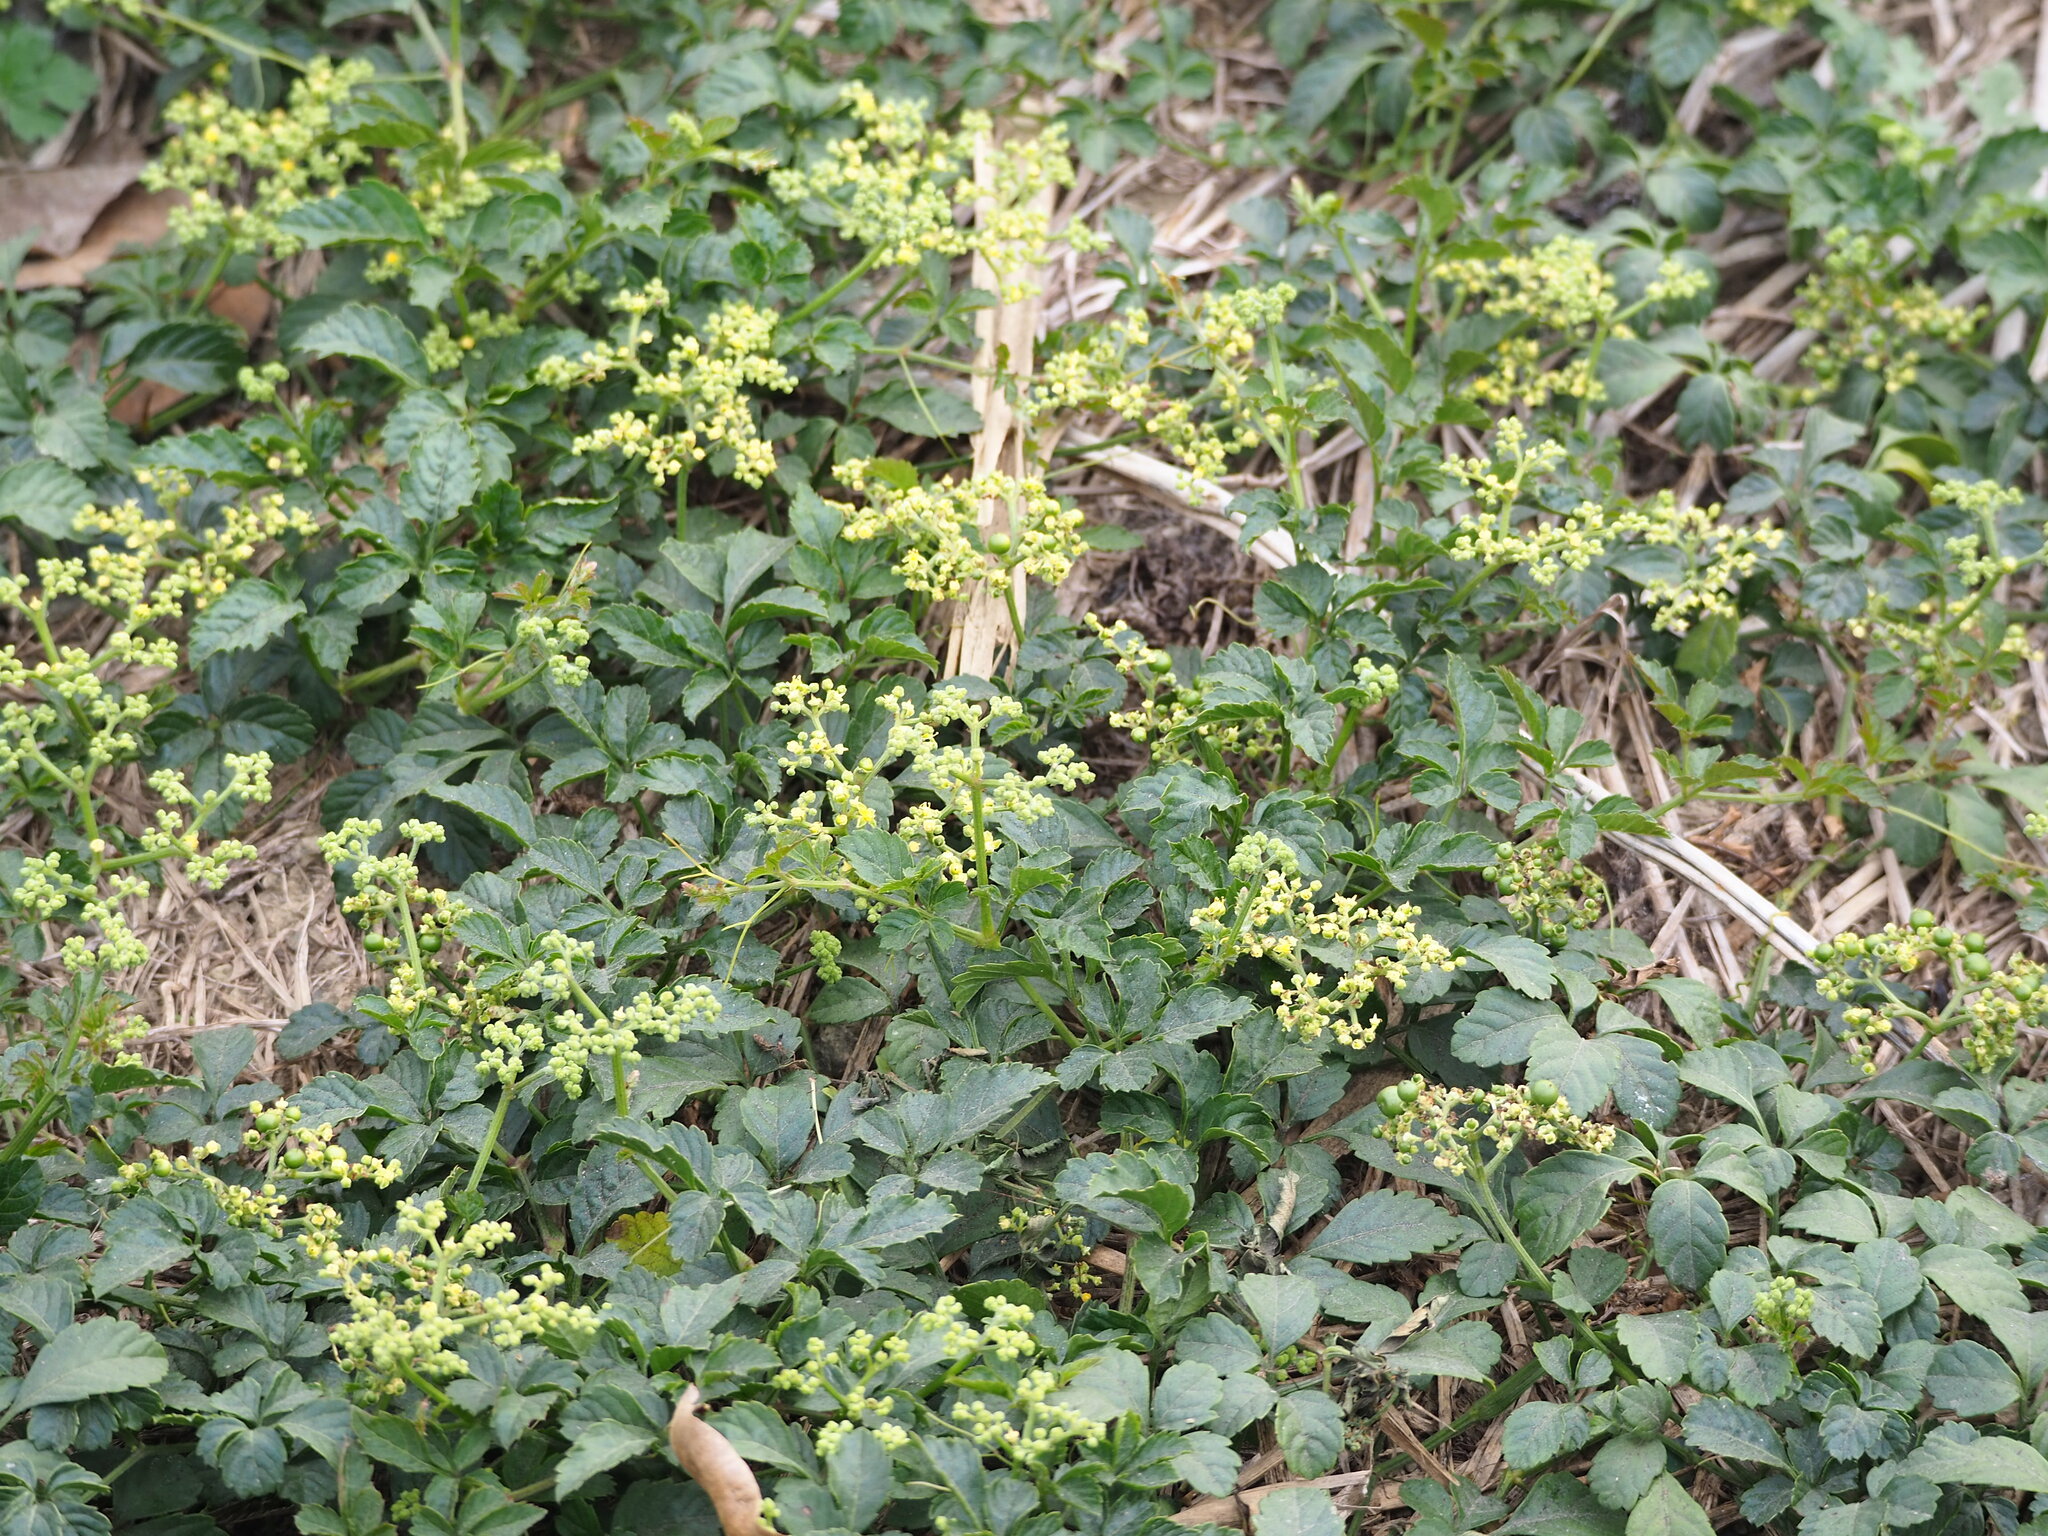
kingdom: Plantae
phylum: Tracheophyta
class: Magnoliopsida
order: Vitales
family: Vitaceae
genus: Causonis
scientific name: Causonis japonica
